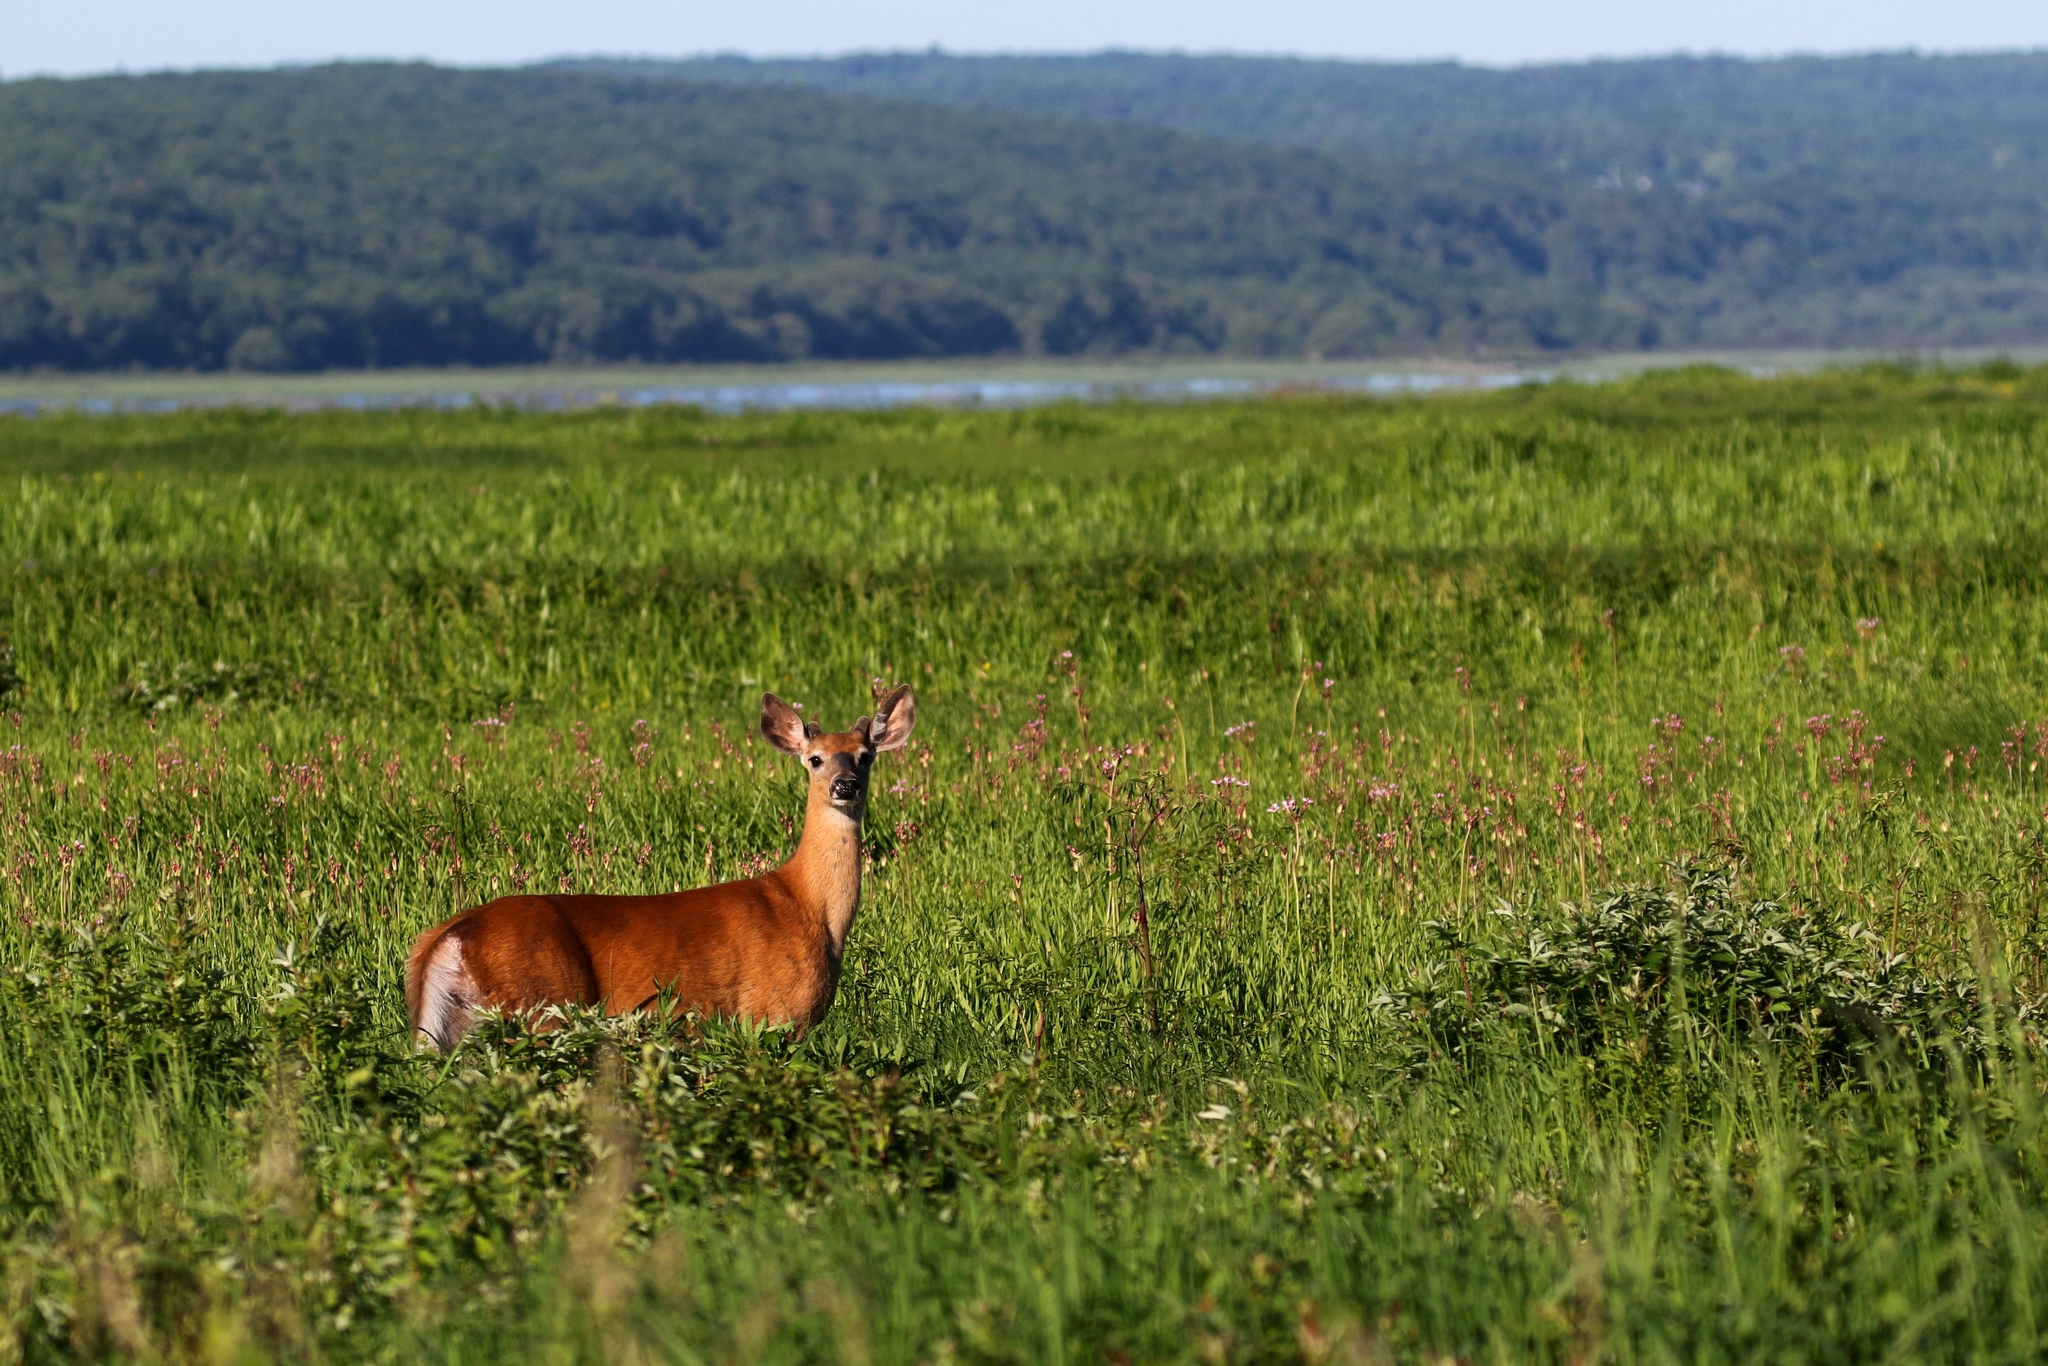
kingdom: Animalia
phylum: Chordata
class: Mammalia
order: Artiodactyla
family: Cervidae
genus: Odocoileus
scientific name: Odocoileus virginianus
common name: White-tailed deer
